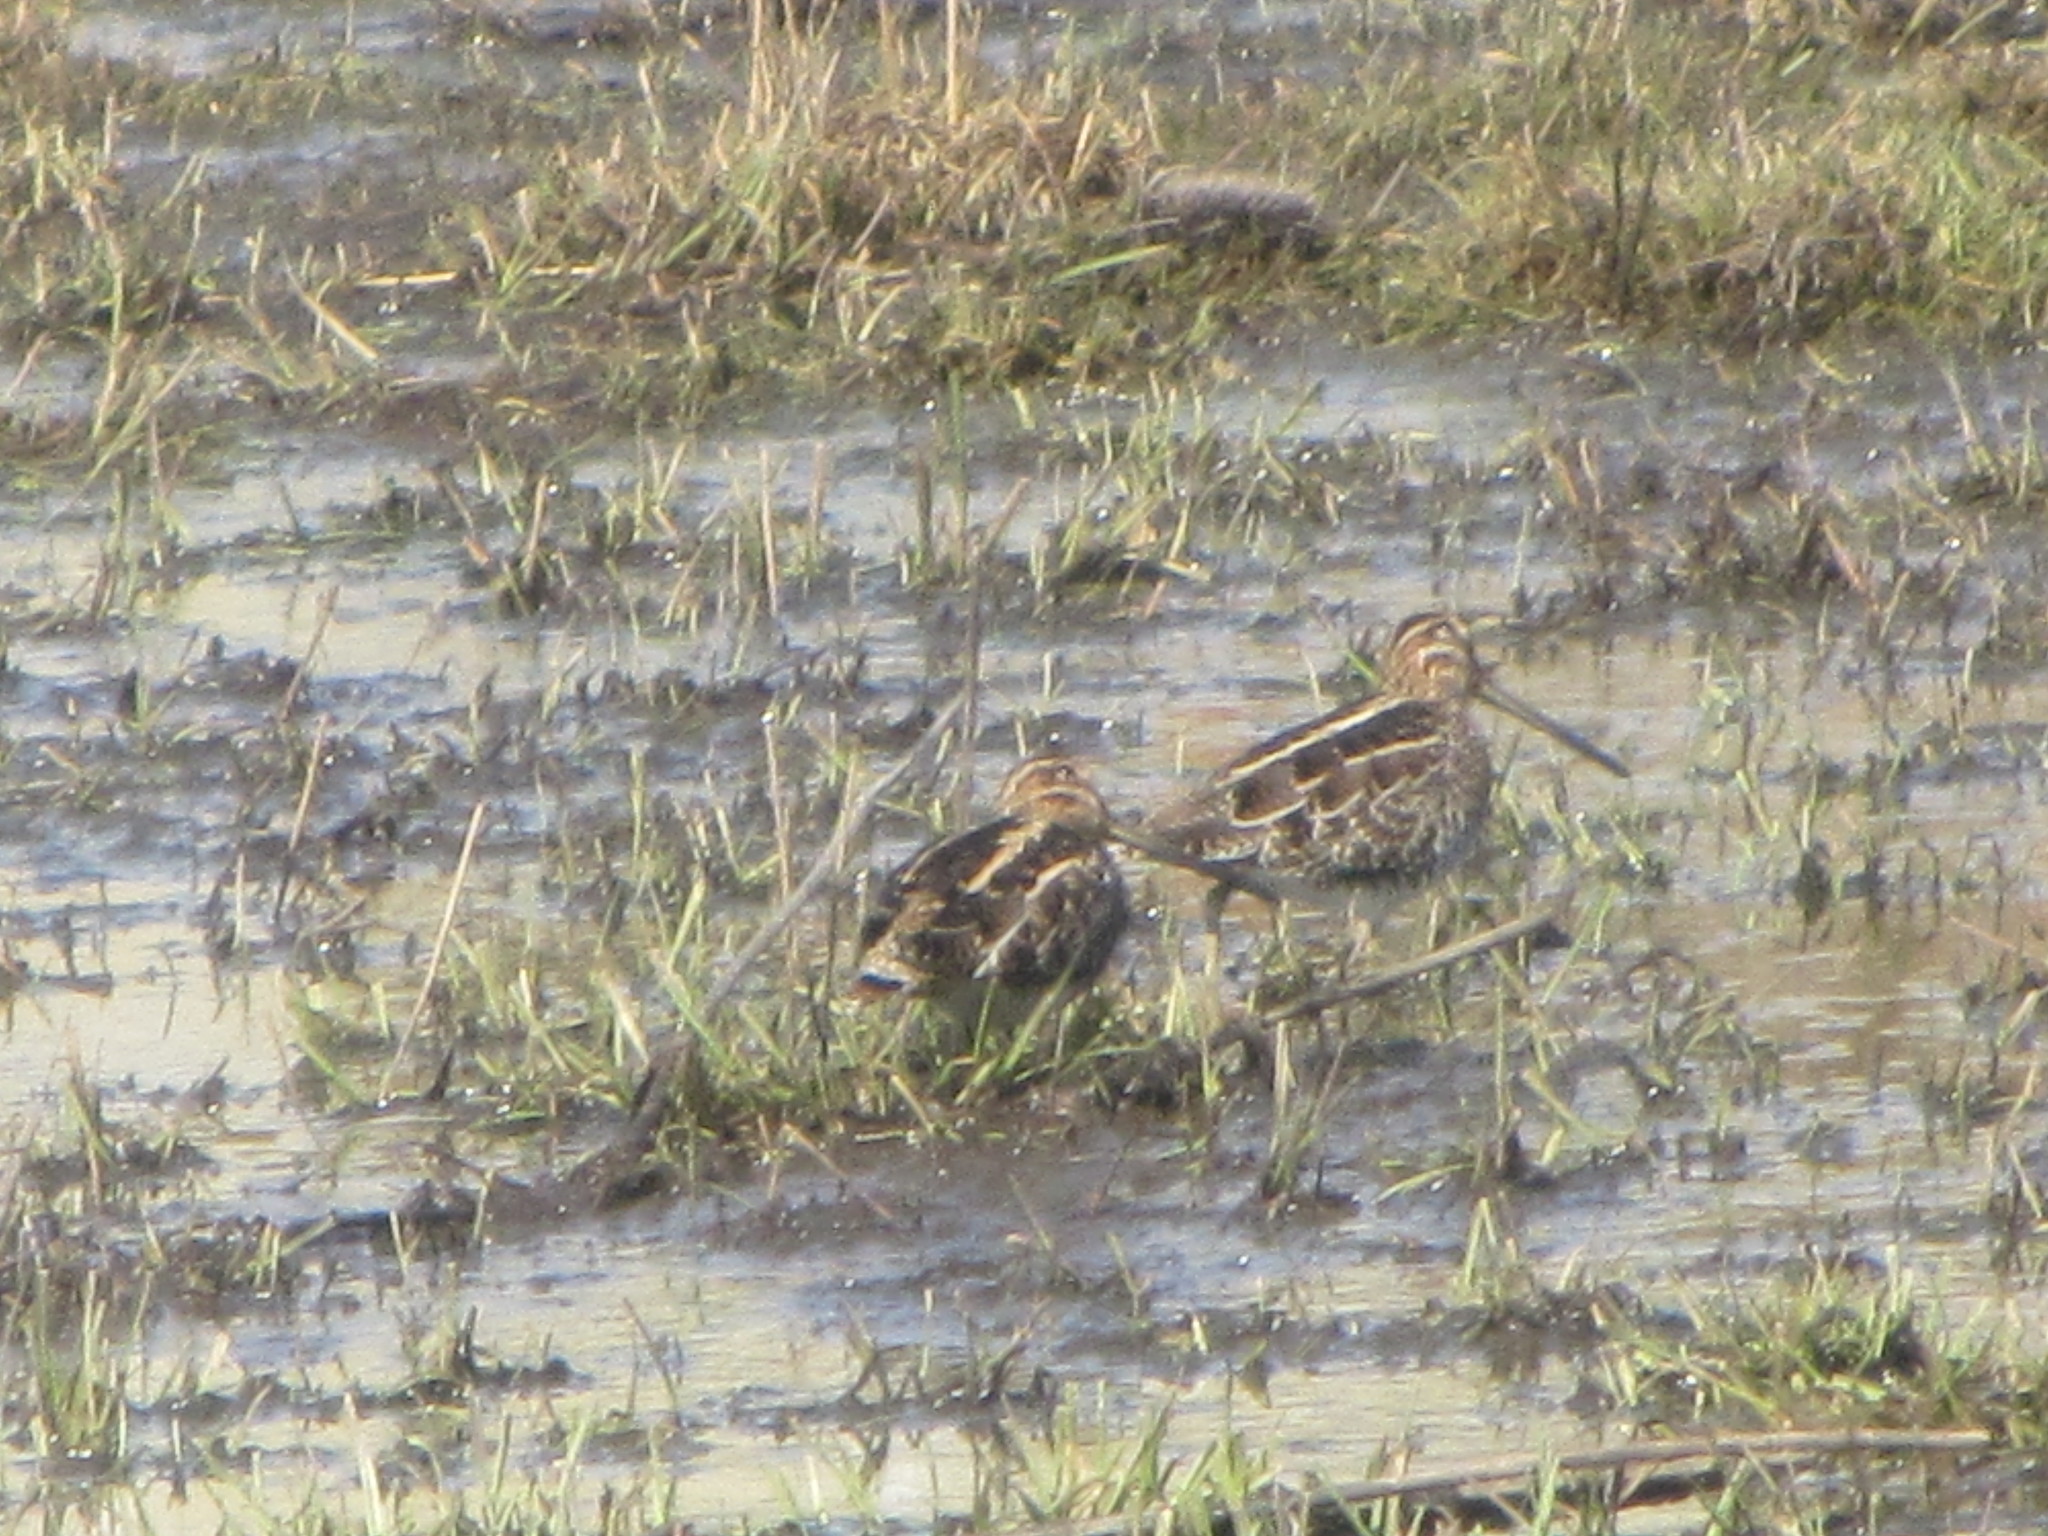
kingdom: Animalia
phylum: Chordata
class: Aves
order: Charadriiformes
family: Scolopacidae
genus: Gallinago
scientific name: Gallinago delicata
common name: Wilson's snipe
